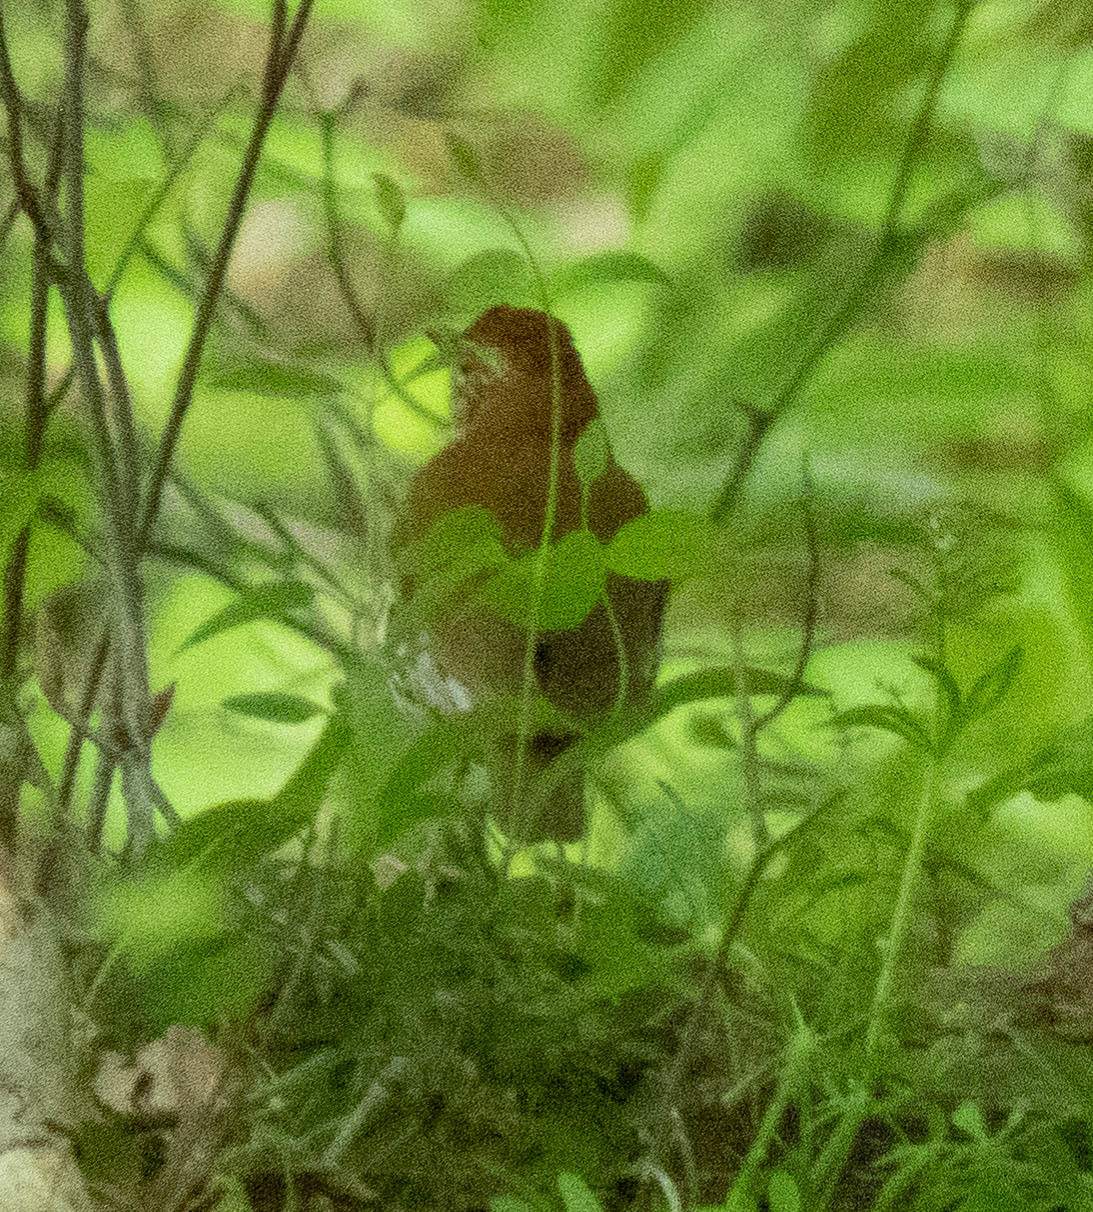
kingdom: Animalia
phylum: Chordata
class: Aves
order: Passeriformes
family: Turdidae
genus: Hylocichla
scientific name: Hylocichla mustelina
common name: Wood thrush
